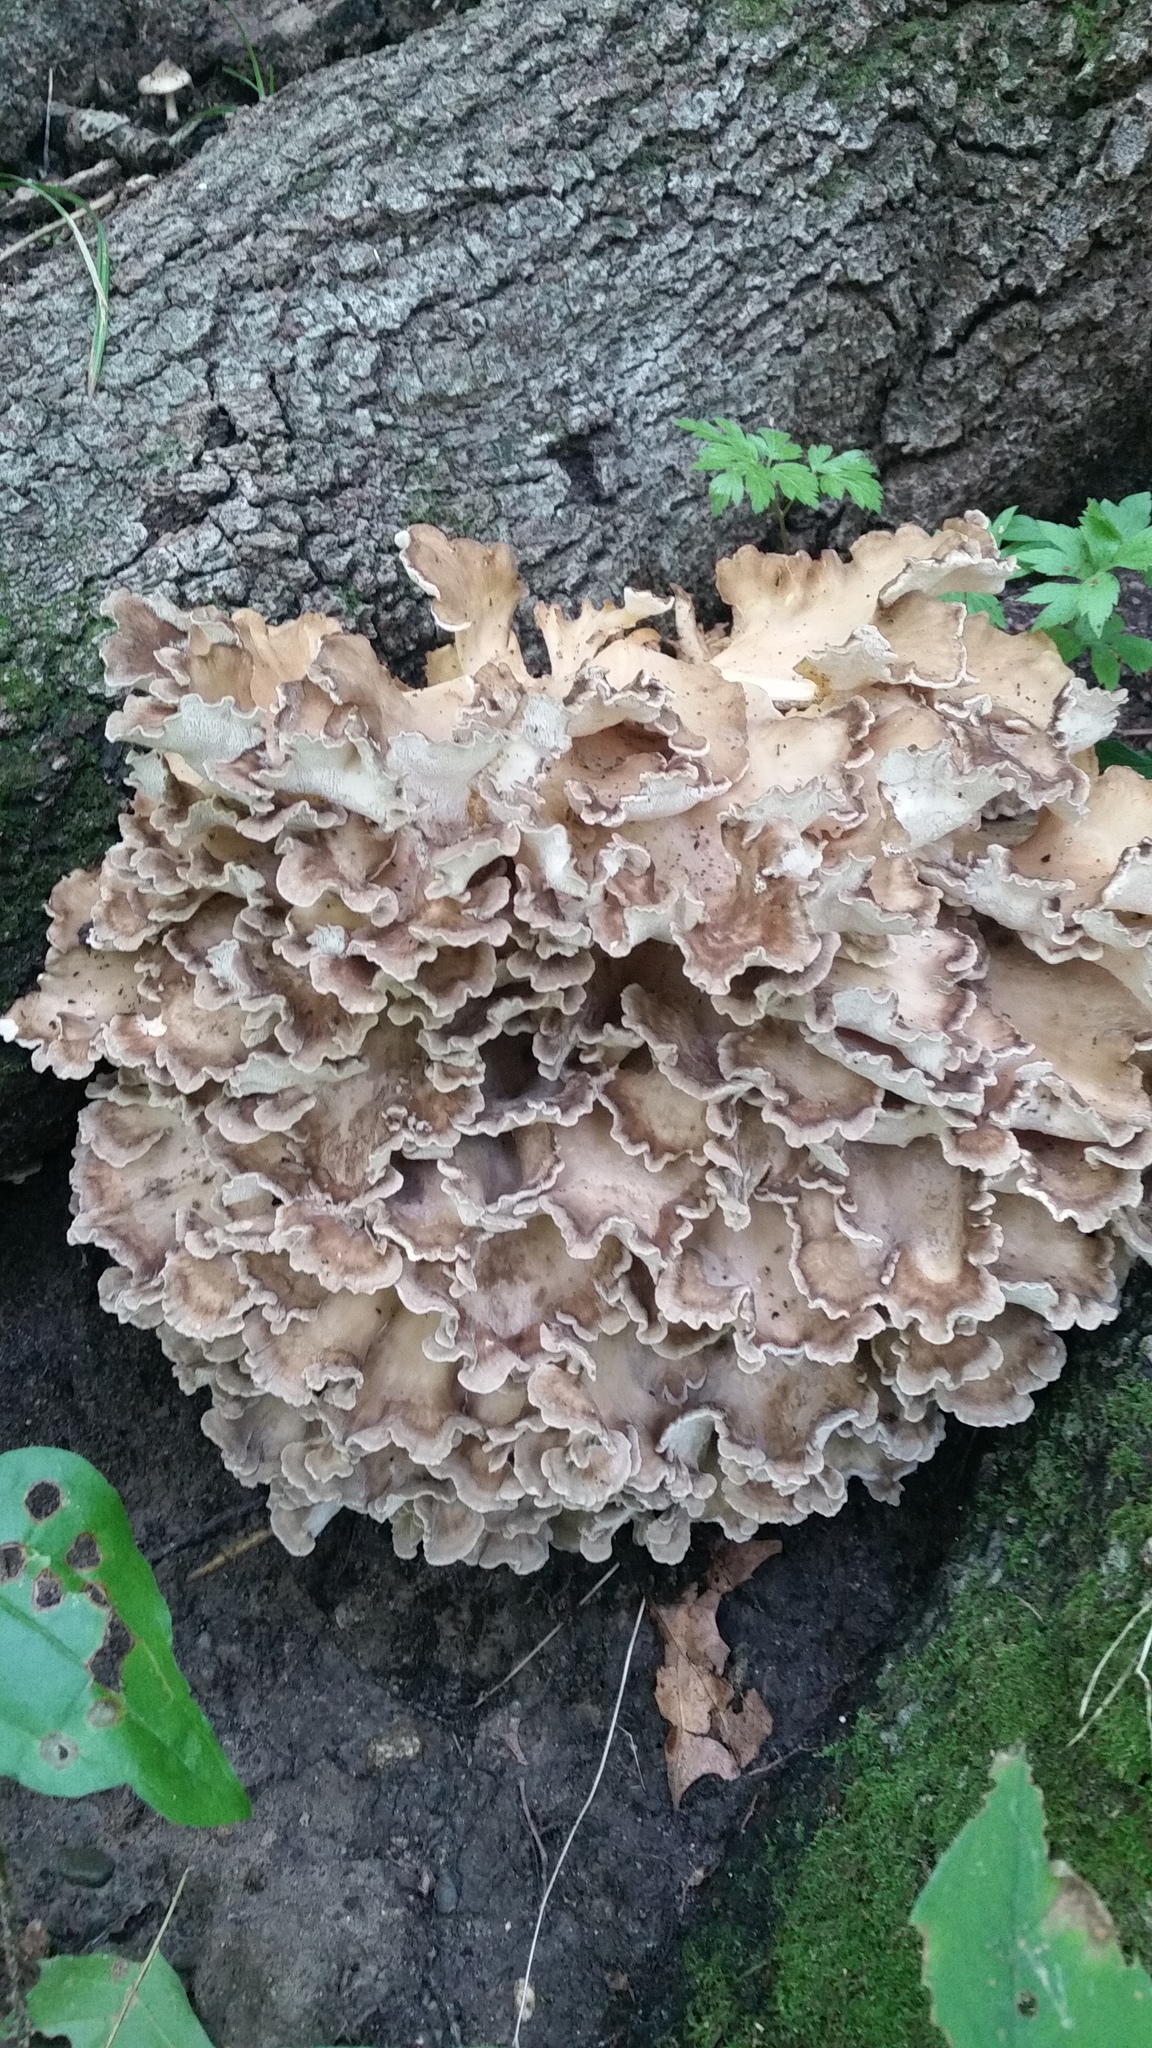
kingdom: Fungi
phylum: Basidiomycota
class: Agaricomycetes
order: Polyporales
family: Grifolaceae
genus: Grifola
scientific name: Grifola frondosa
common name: Hen of the woods
